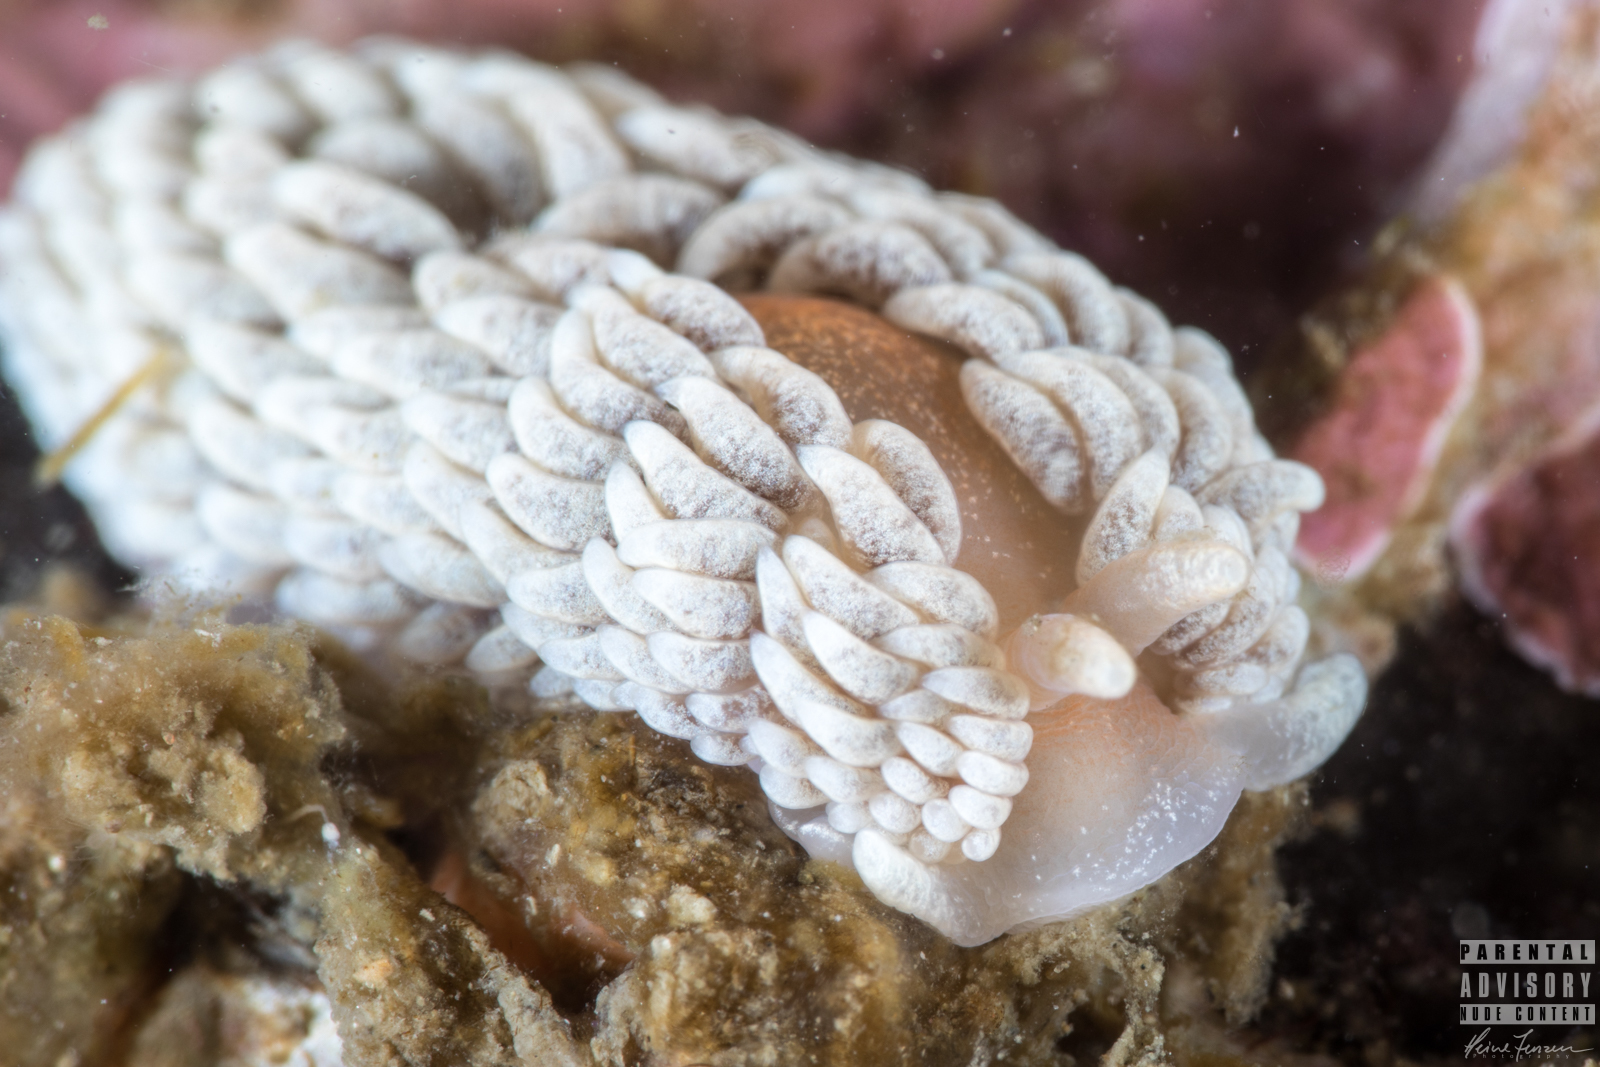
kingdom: Animalia
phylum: Mollusca
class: Gastropoda
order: Nudibranchia
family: Aeolidiidae
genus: Aeolidiella
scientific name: Aeolidiella glauca
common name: Orange-brown aeolid
